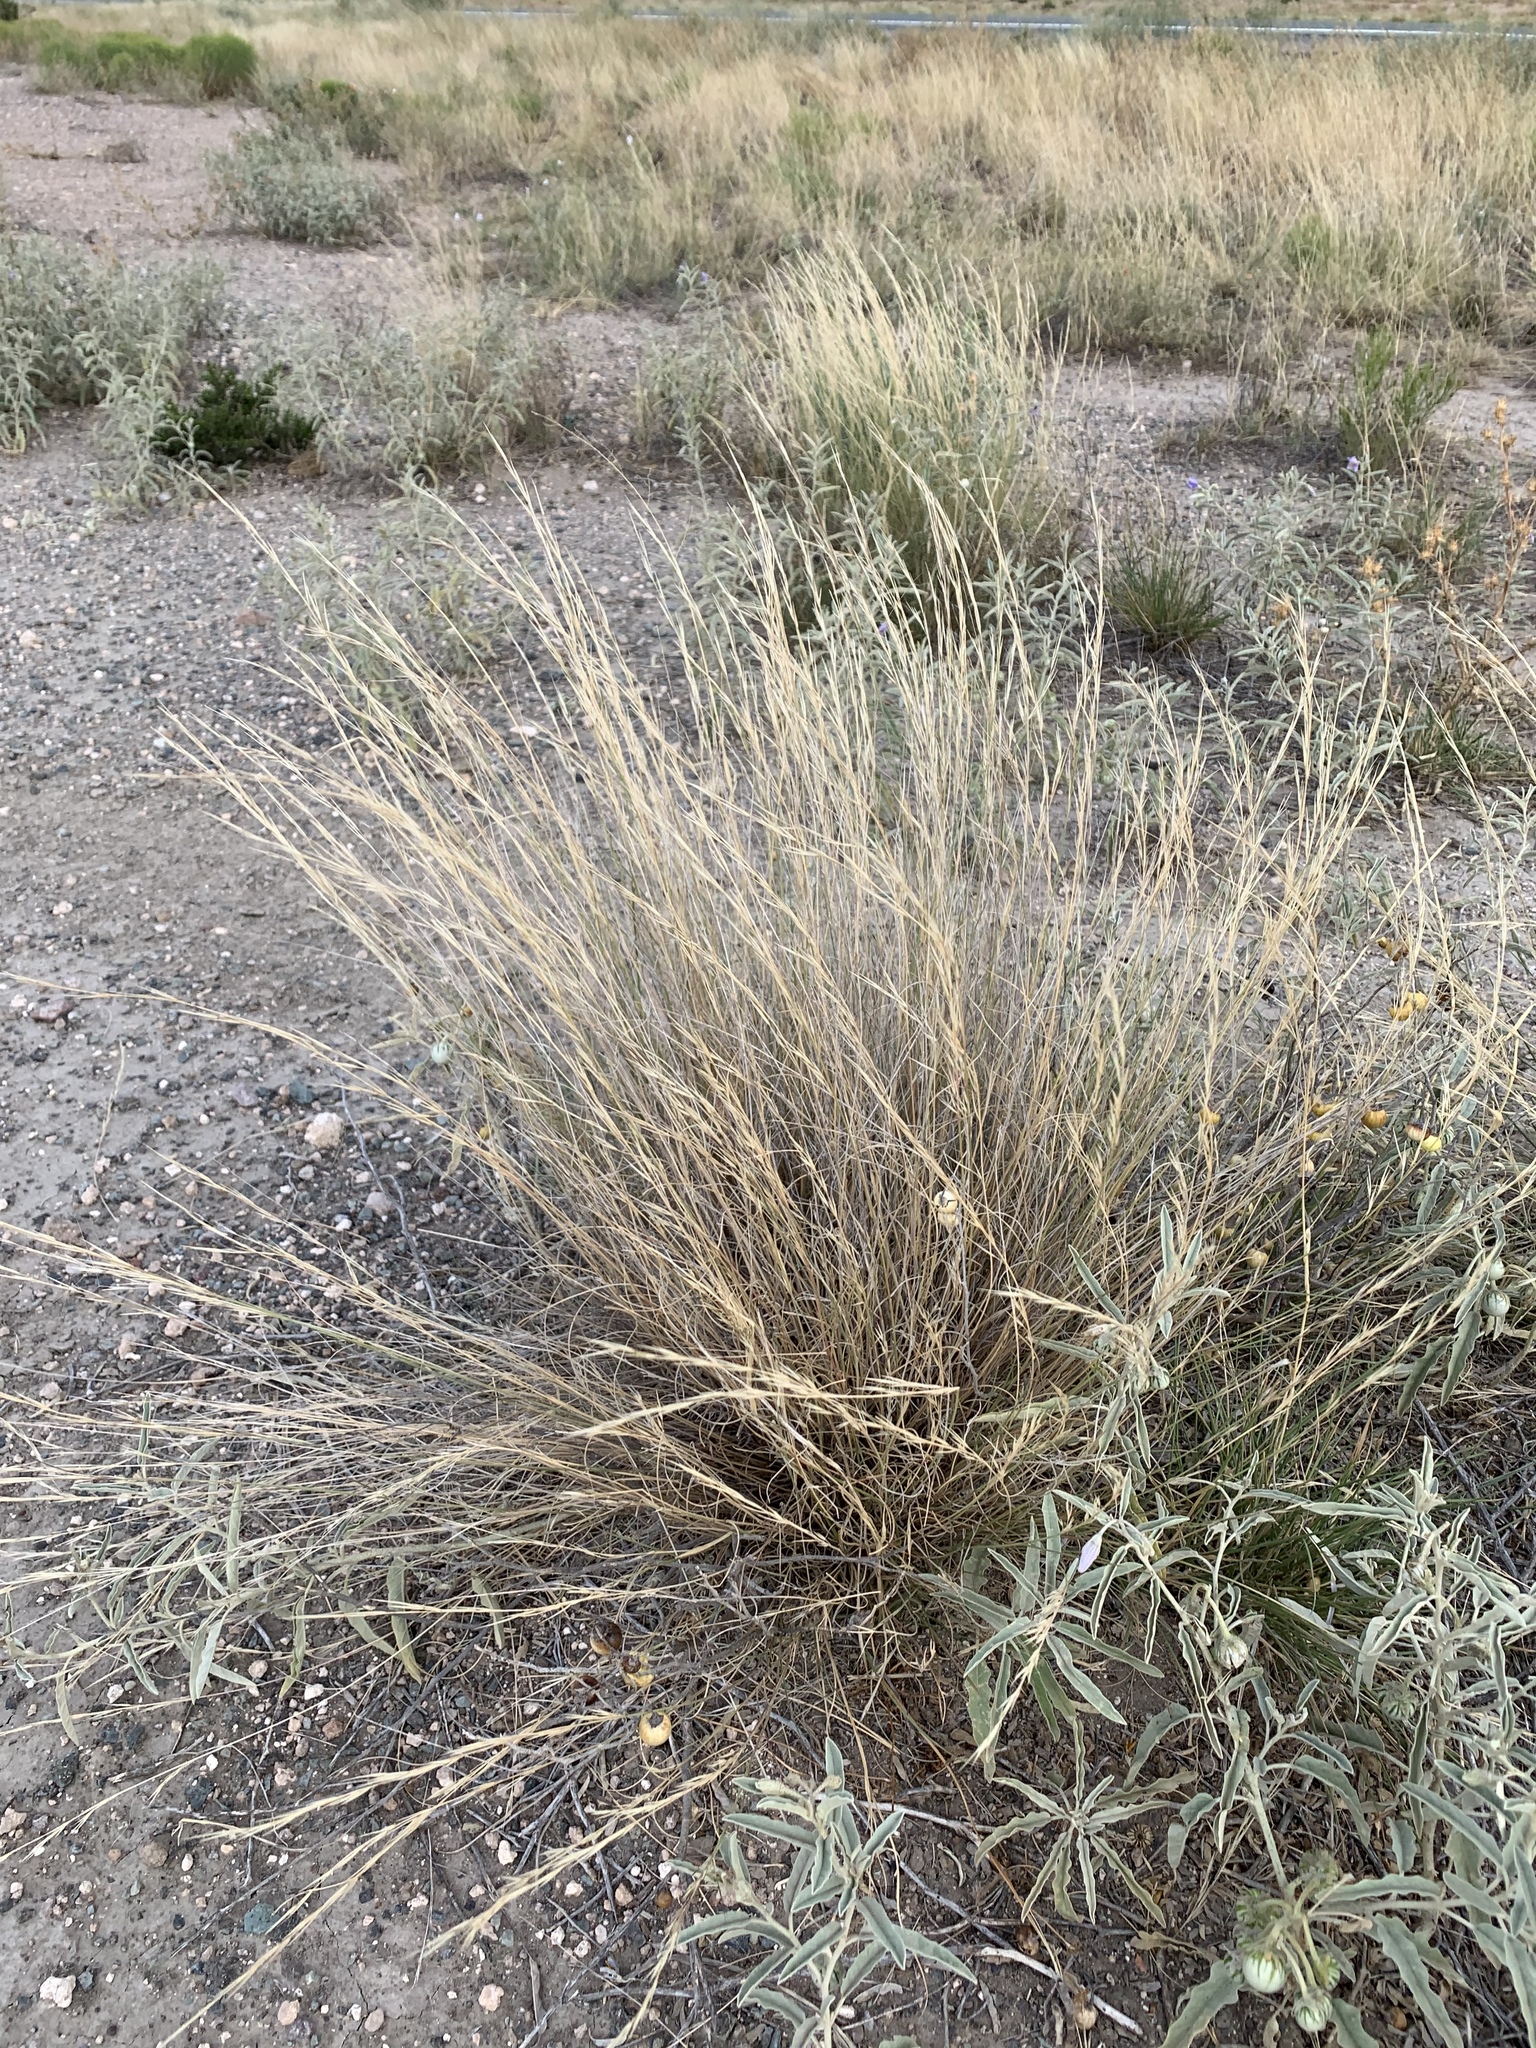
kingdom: Plantae
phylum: Tracheophyta
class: Liliopsida
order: Poales
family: Poaceae
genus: Aristida
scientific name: Aristida purpurea
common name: Purple threeawn
